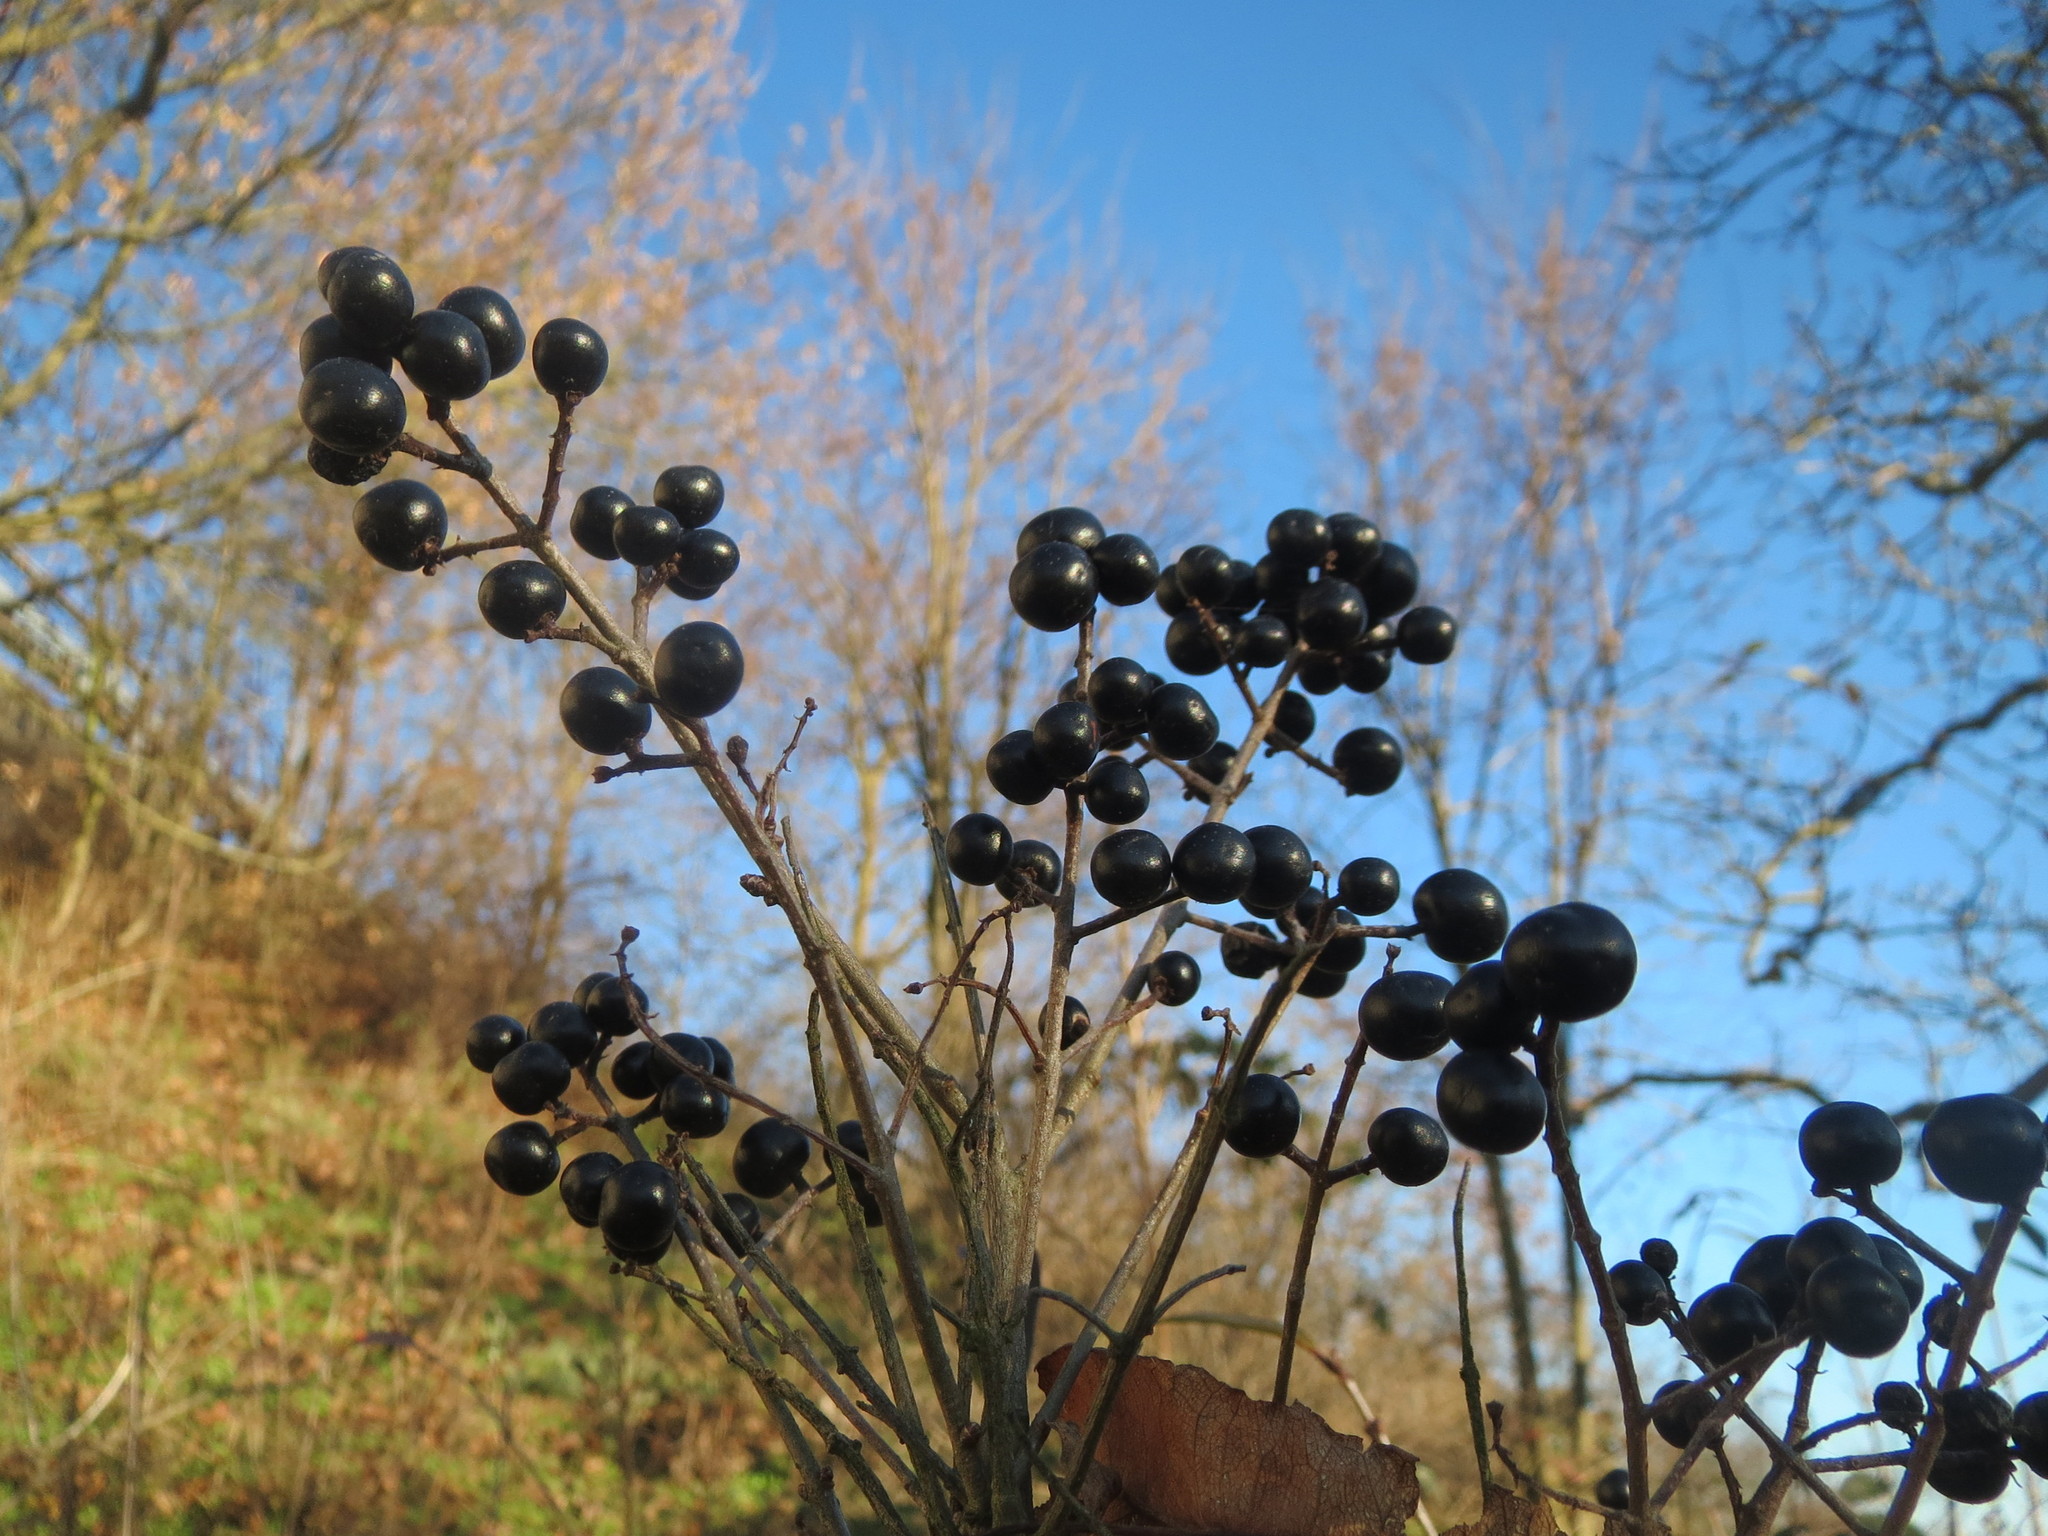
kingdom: Plantae
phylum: Tracheophyta
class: Magnoliopsida
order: Lamiales
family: Oleaceae
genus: Ligustrum
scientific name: Ligustrum vulgare
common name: Wild privet
